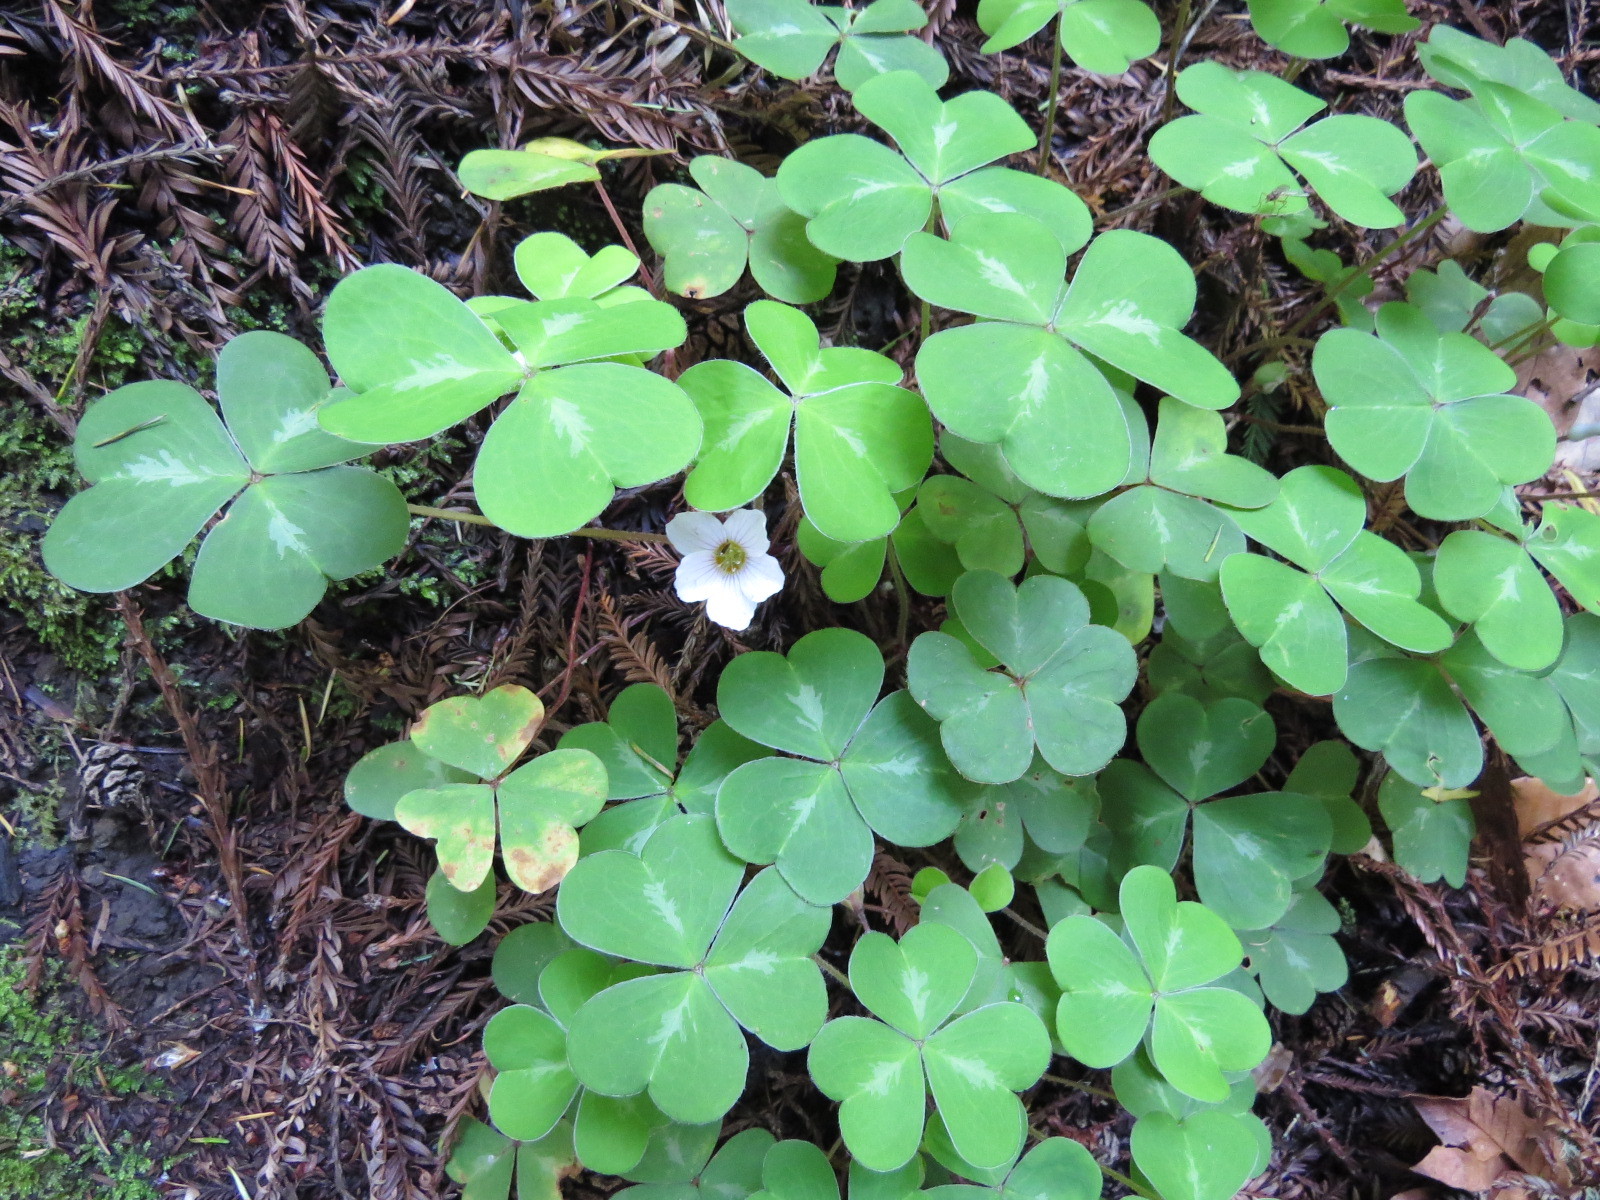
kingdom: Plantae
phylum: Tracheophyta
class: Magnoliopsida
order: Oxalidales
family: Oxalidaceae
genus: Oxalis
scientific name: Oxalis oregana
